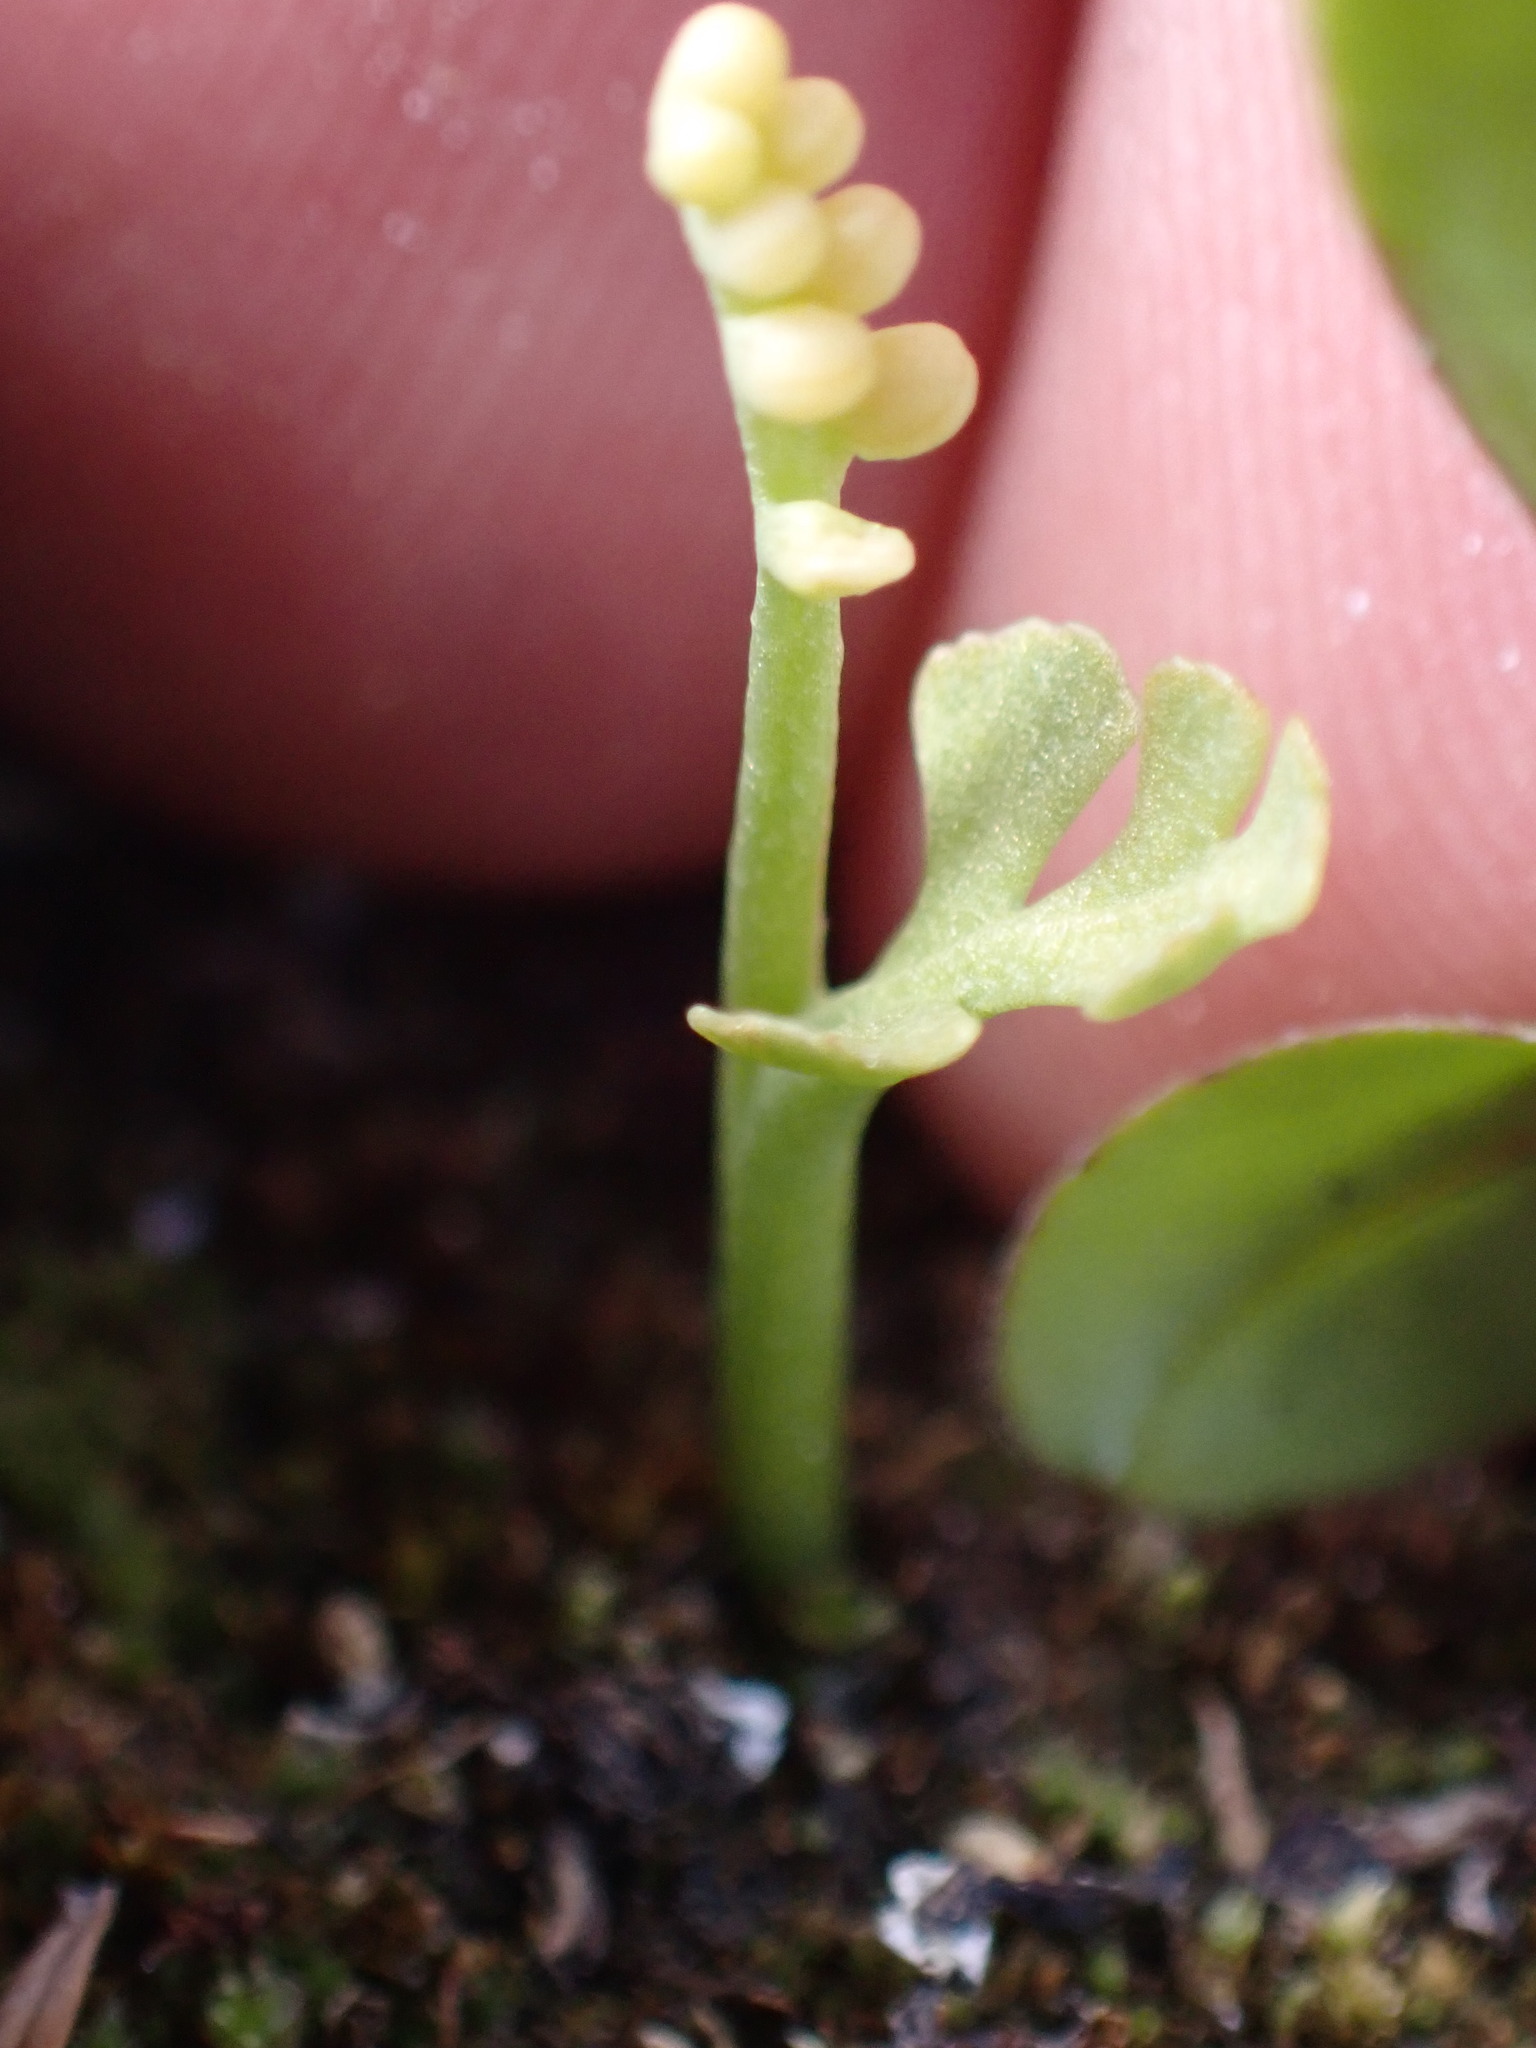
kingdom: Plantae
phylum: Tracheophyta
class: Polypodiopsida
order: Ophioglossales
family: Ophioglossaceae
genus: Botrychium
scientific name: Botrychium minganense
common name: Mingan grapefern
